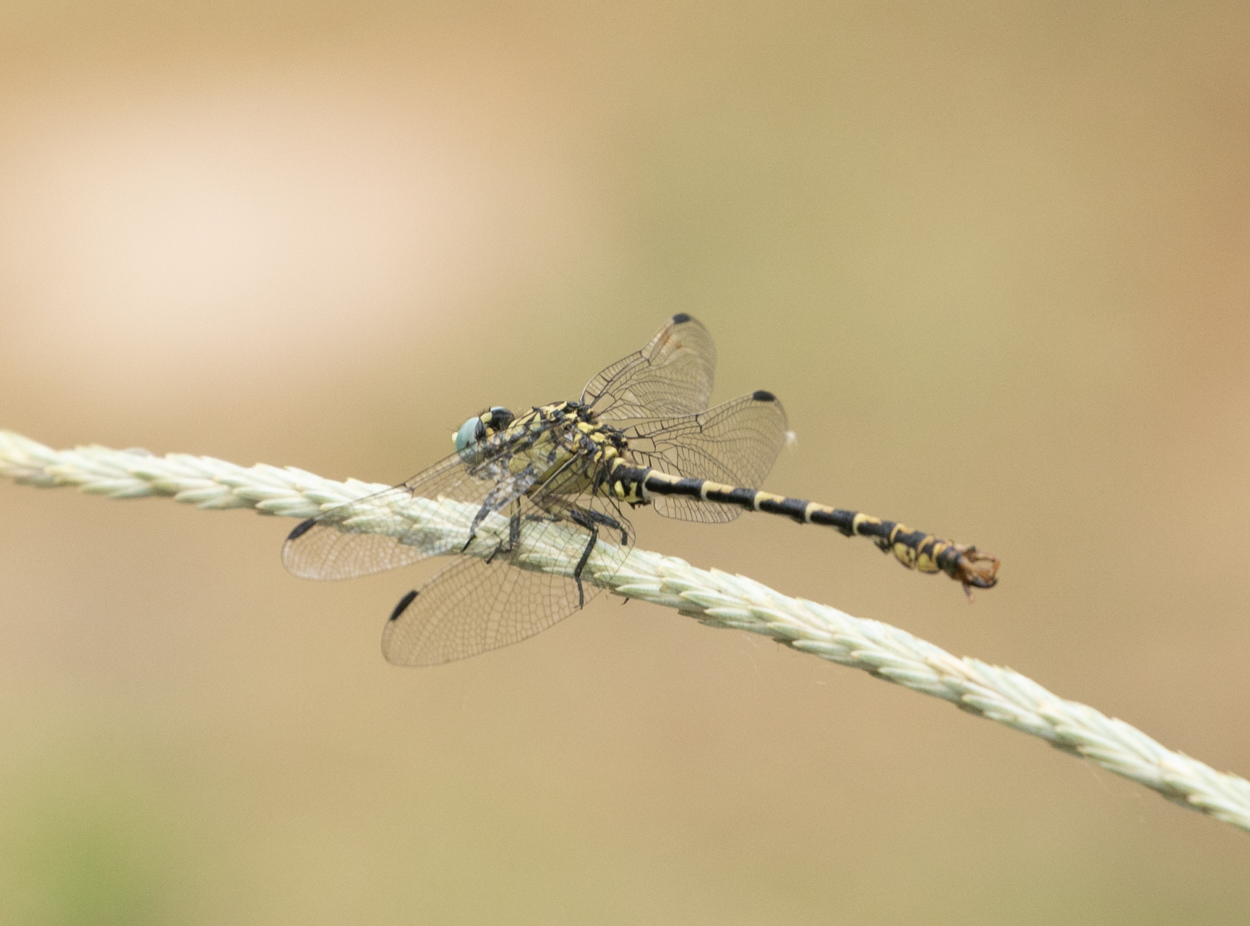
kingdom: Animalia
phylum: Arthropoda
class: Insecta
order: Odonata
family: Gomphidae
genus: Onychogomphus
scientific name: Onychogomphus forcipatus
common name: Small pincertail
